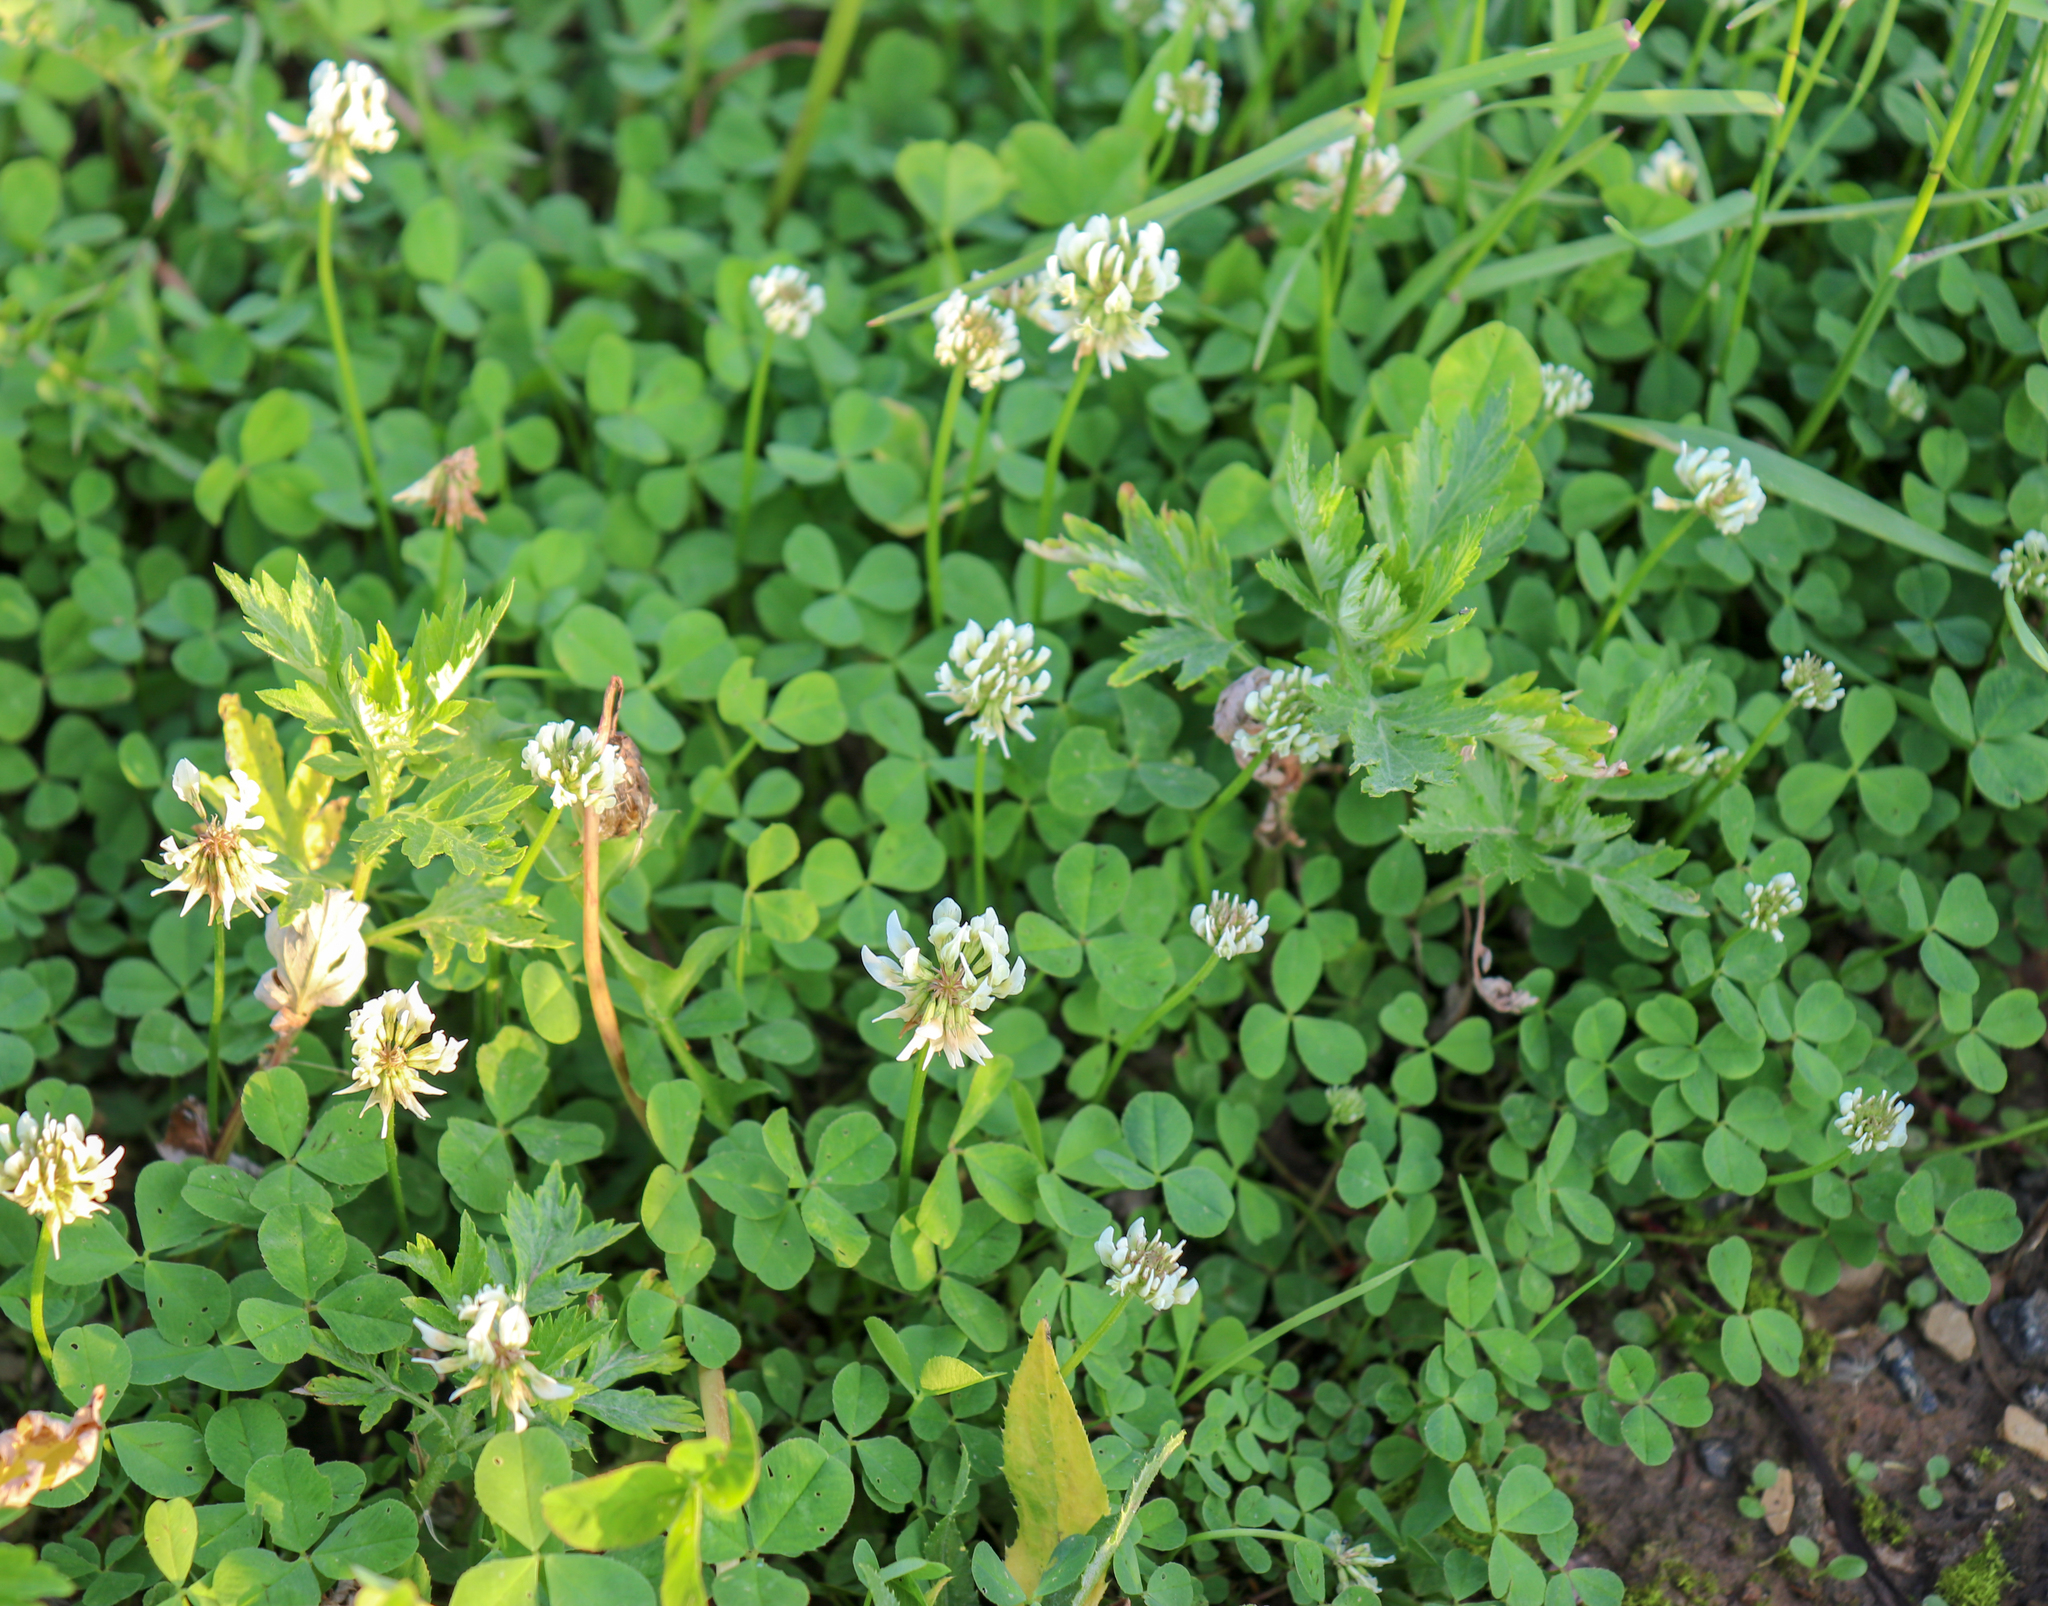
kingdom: Plantae
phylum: Tracheophyta
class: Magnoliopsida
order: Fabales
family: Fabaceae
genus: Trifolium
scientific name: Trifolium repens
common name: White clover
